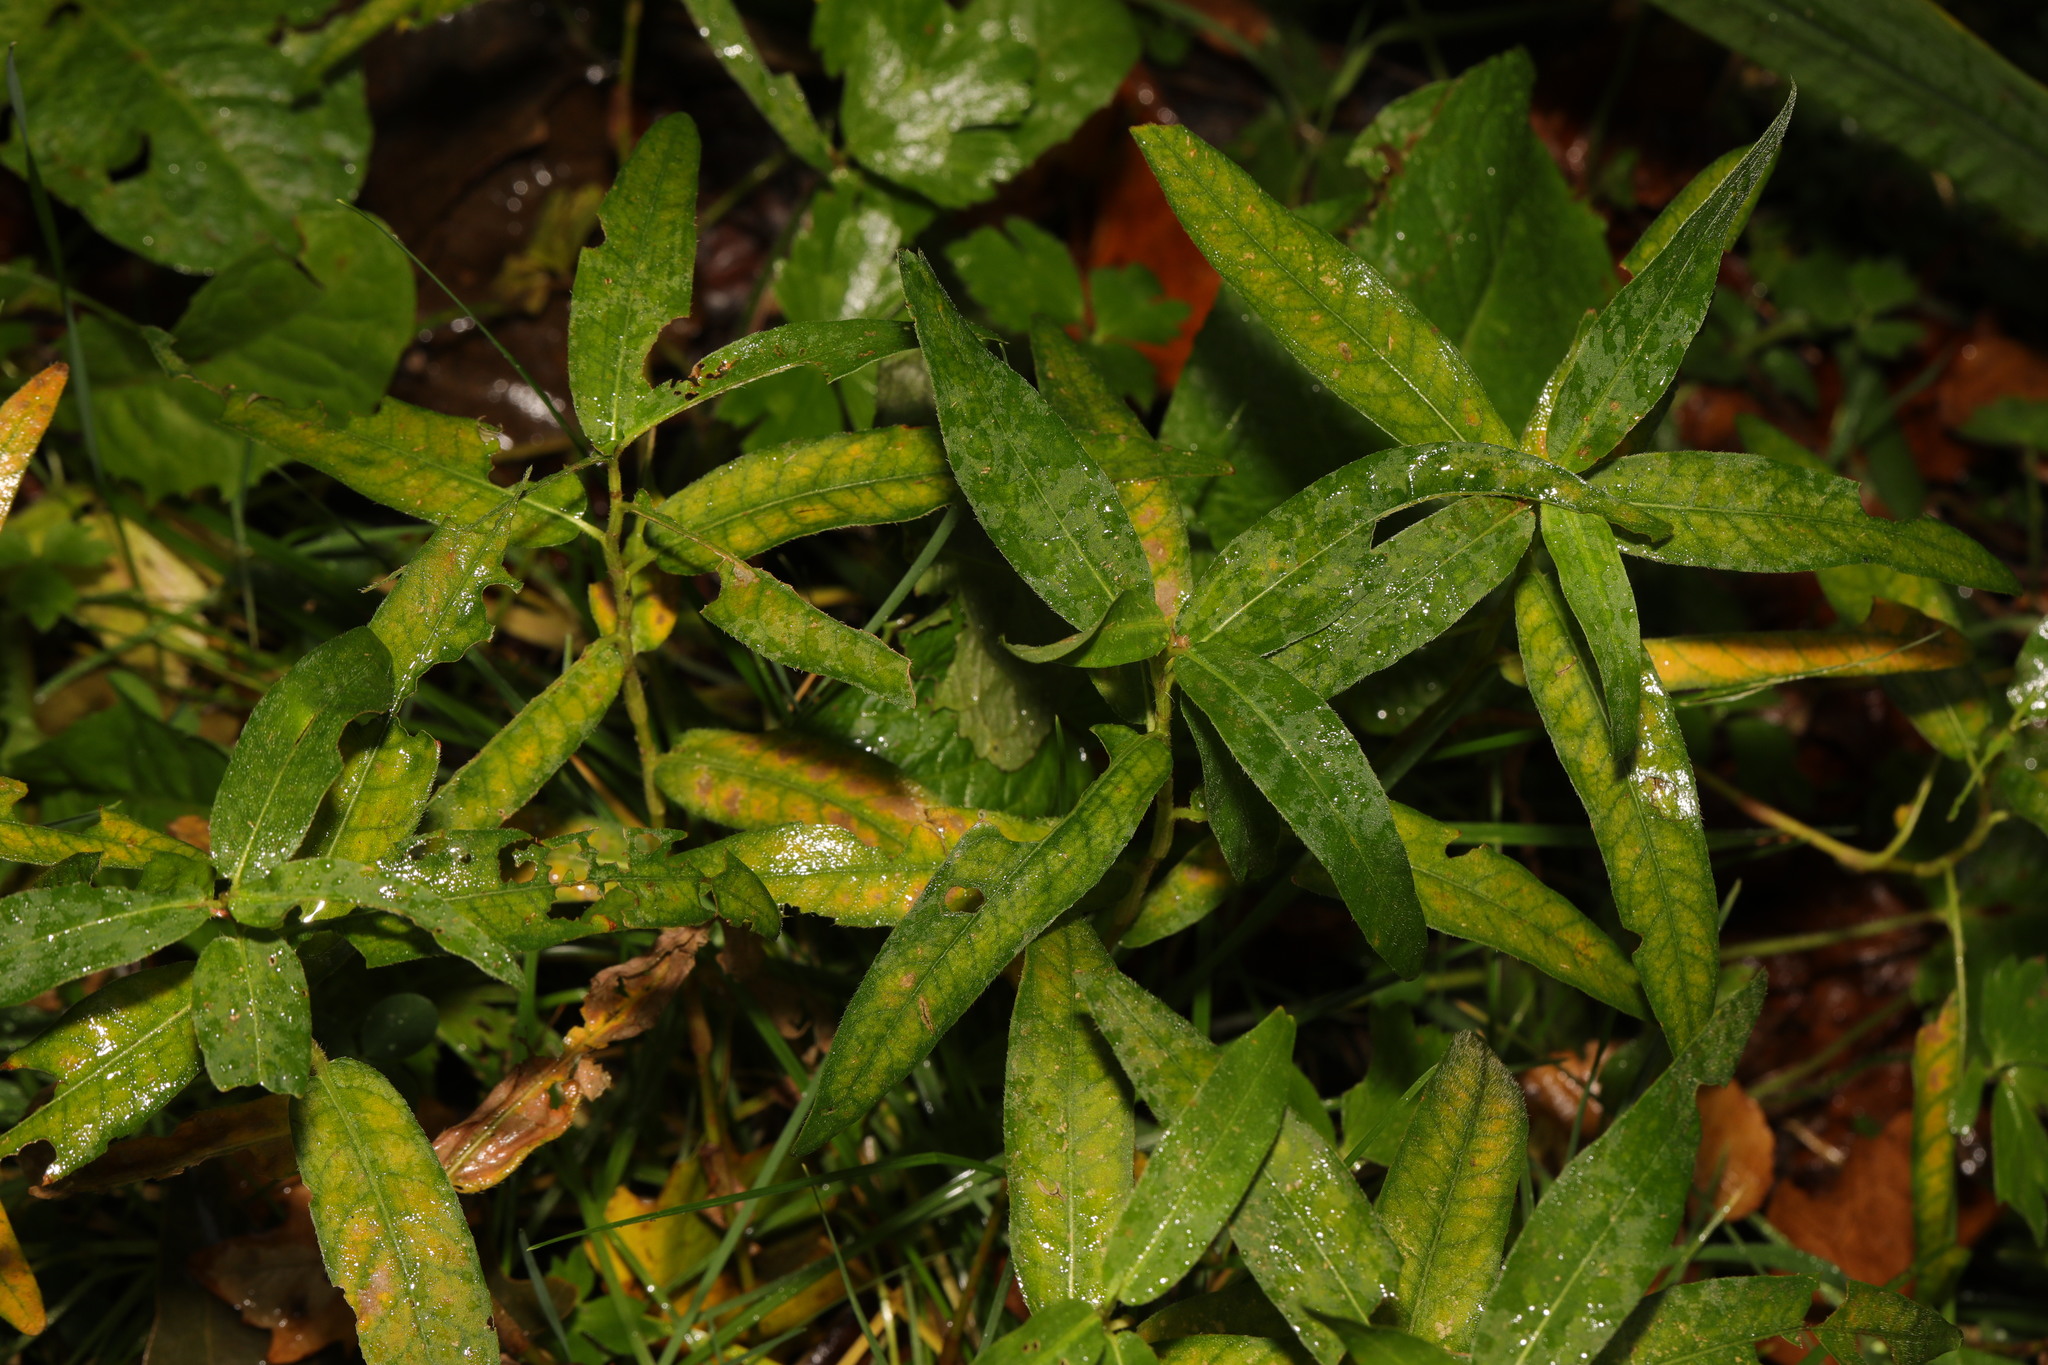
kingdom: Plantae
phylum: Tracheophyta
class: Magnoliopsida
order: Caryophyllales
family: Polygonaceae
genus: Persicaria
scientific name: Persicaria amphibia
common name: Amphibious bistort
